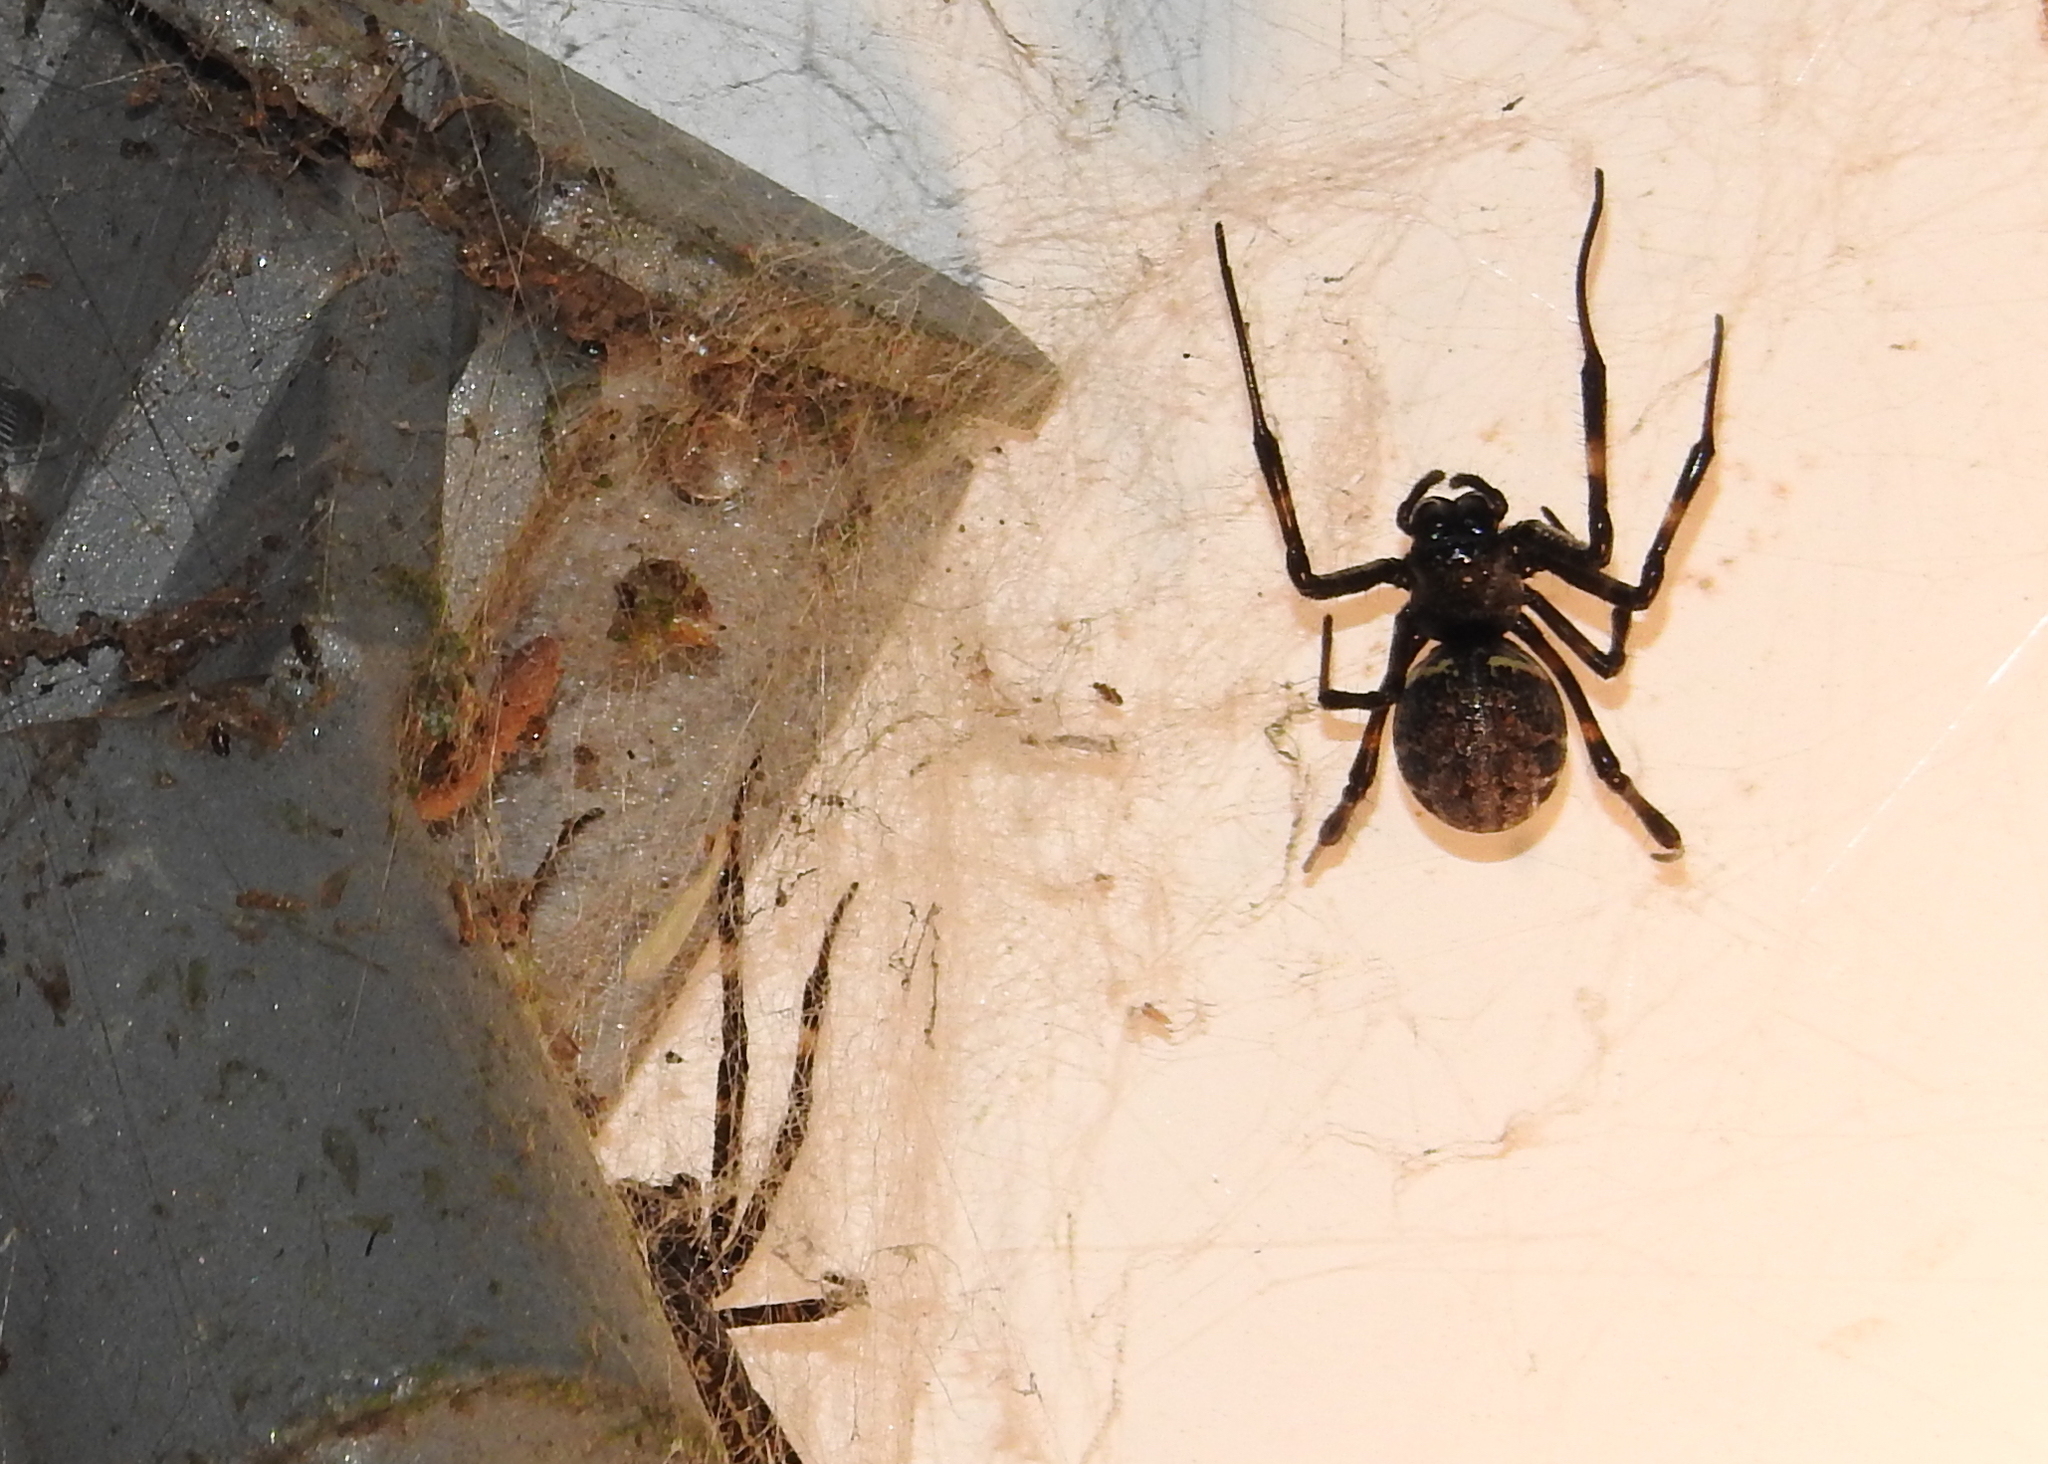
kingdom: Animalia
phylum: Arthropoda
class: Arachnida
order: Araneae
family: Araneidae
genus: Nephilengys
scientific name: Nephilengys malabarensis
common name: Asian hermit spider
